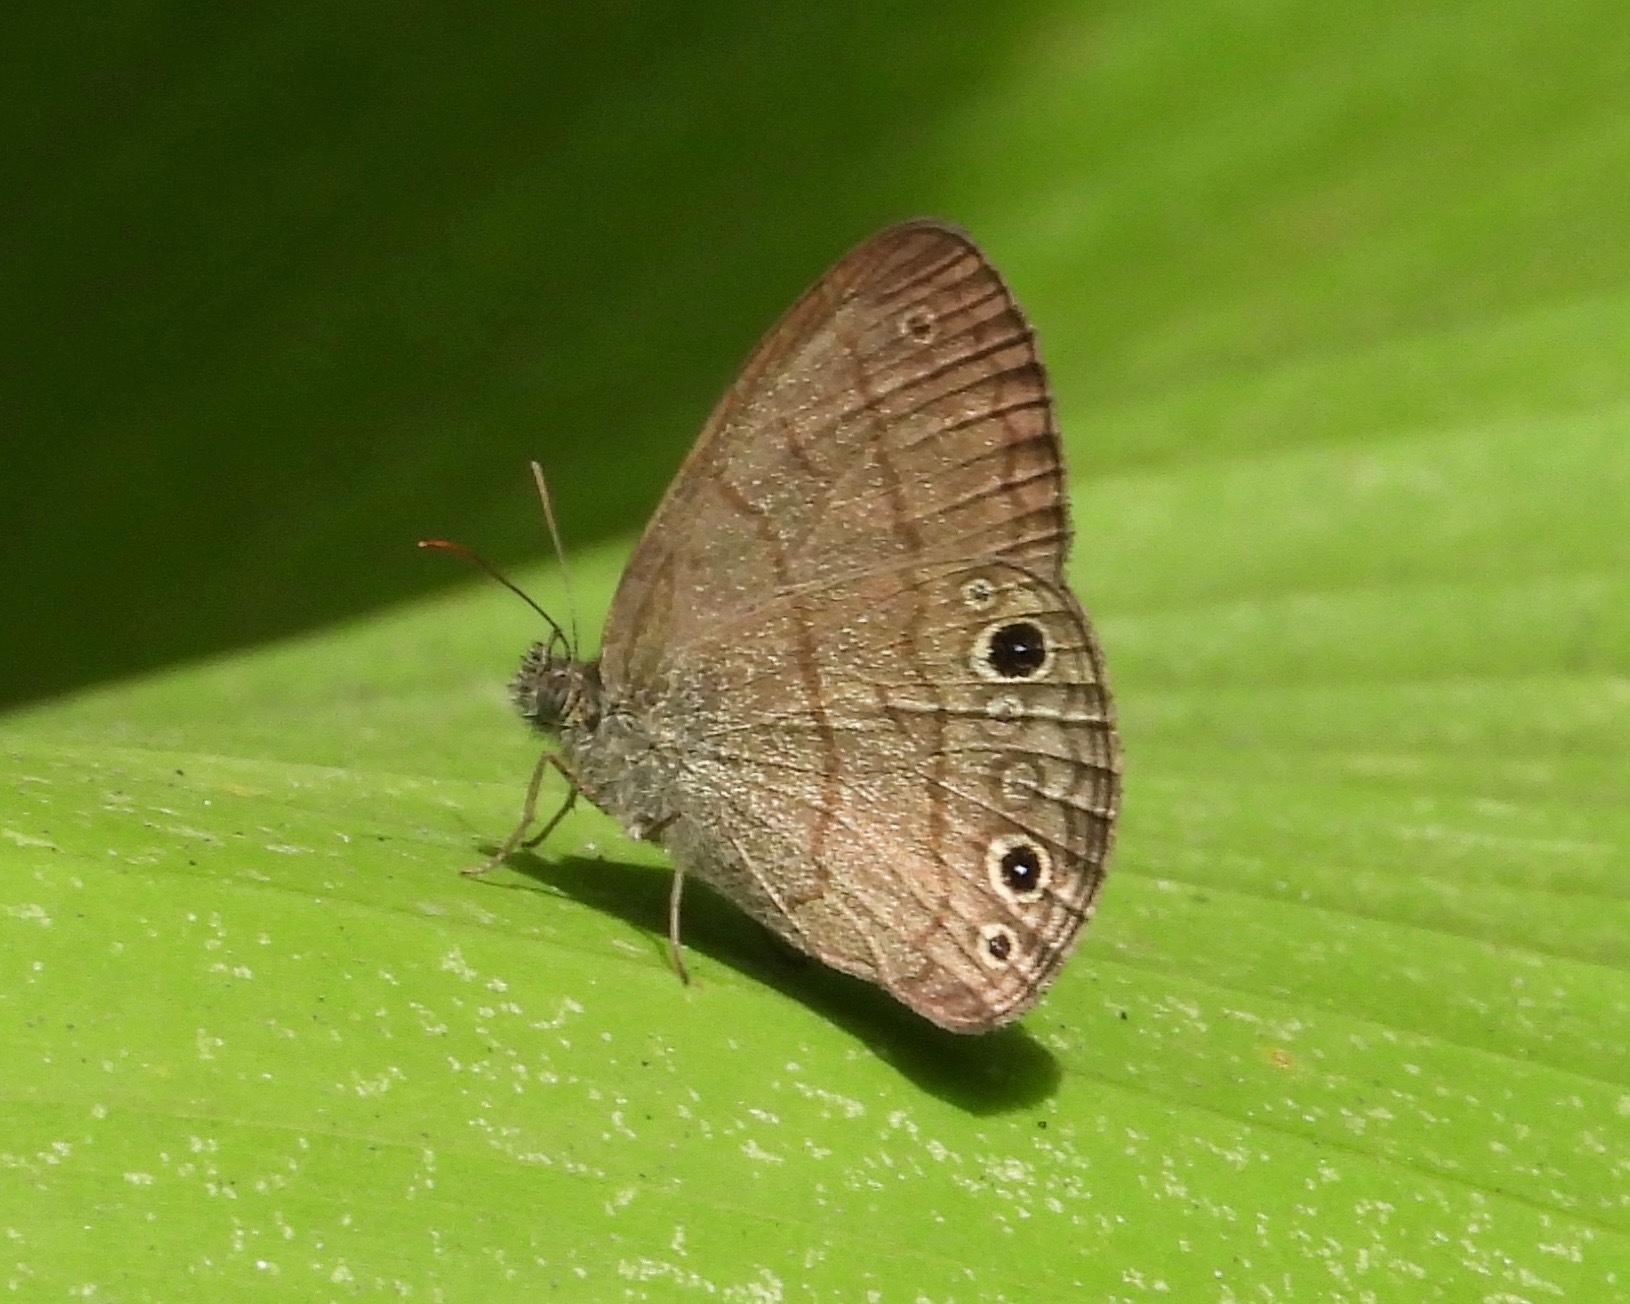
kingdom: Animalia
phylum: Arthropoda
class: Insecta
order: Lepidoptera
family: Nymphalidae
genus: Hermeuptychia
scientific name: Hermeuptychia hermes
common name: Hermes satyr
